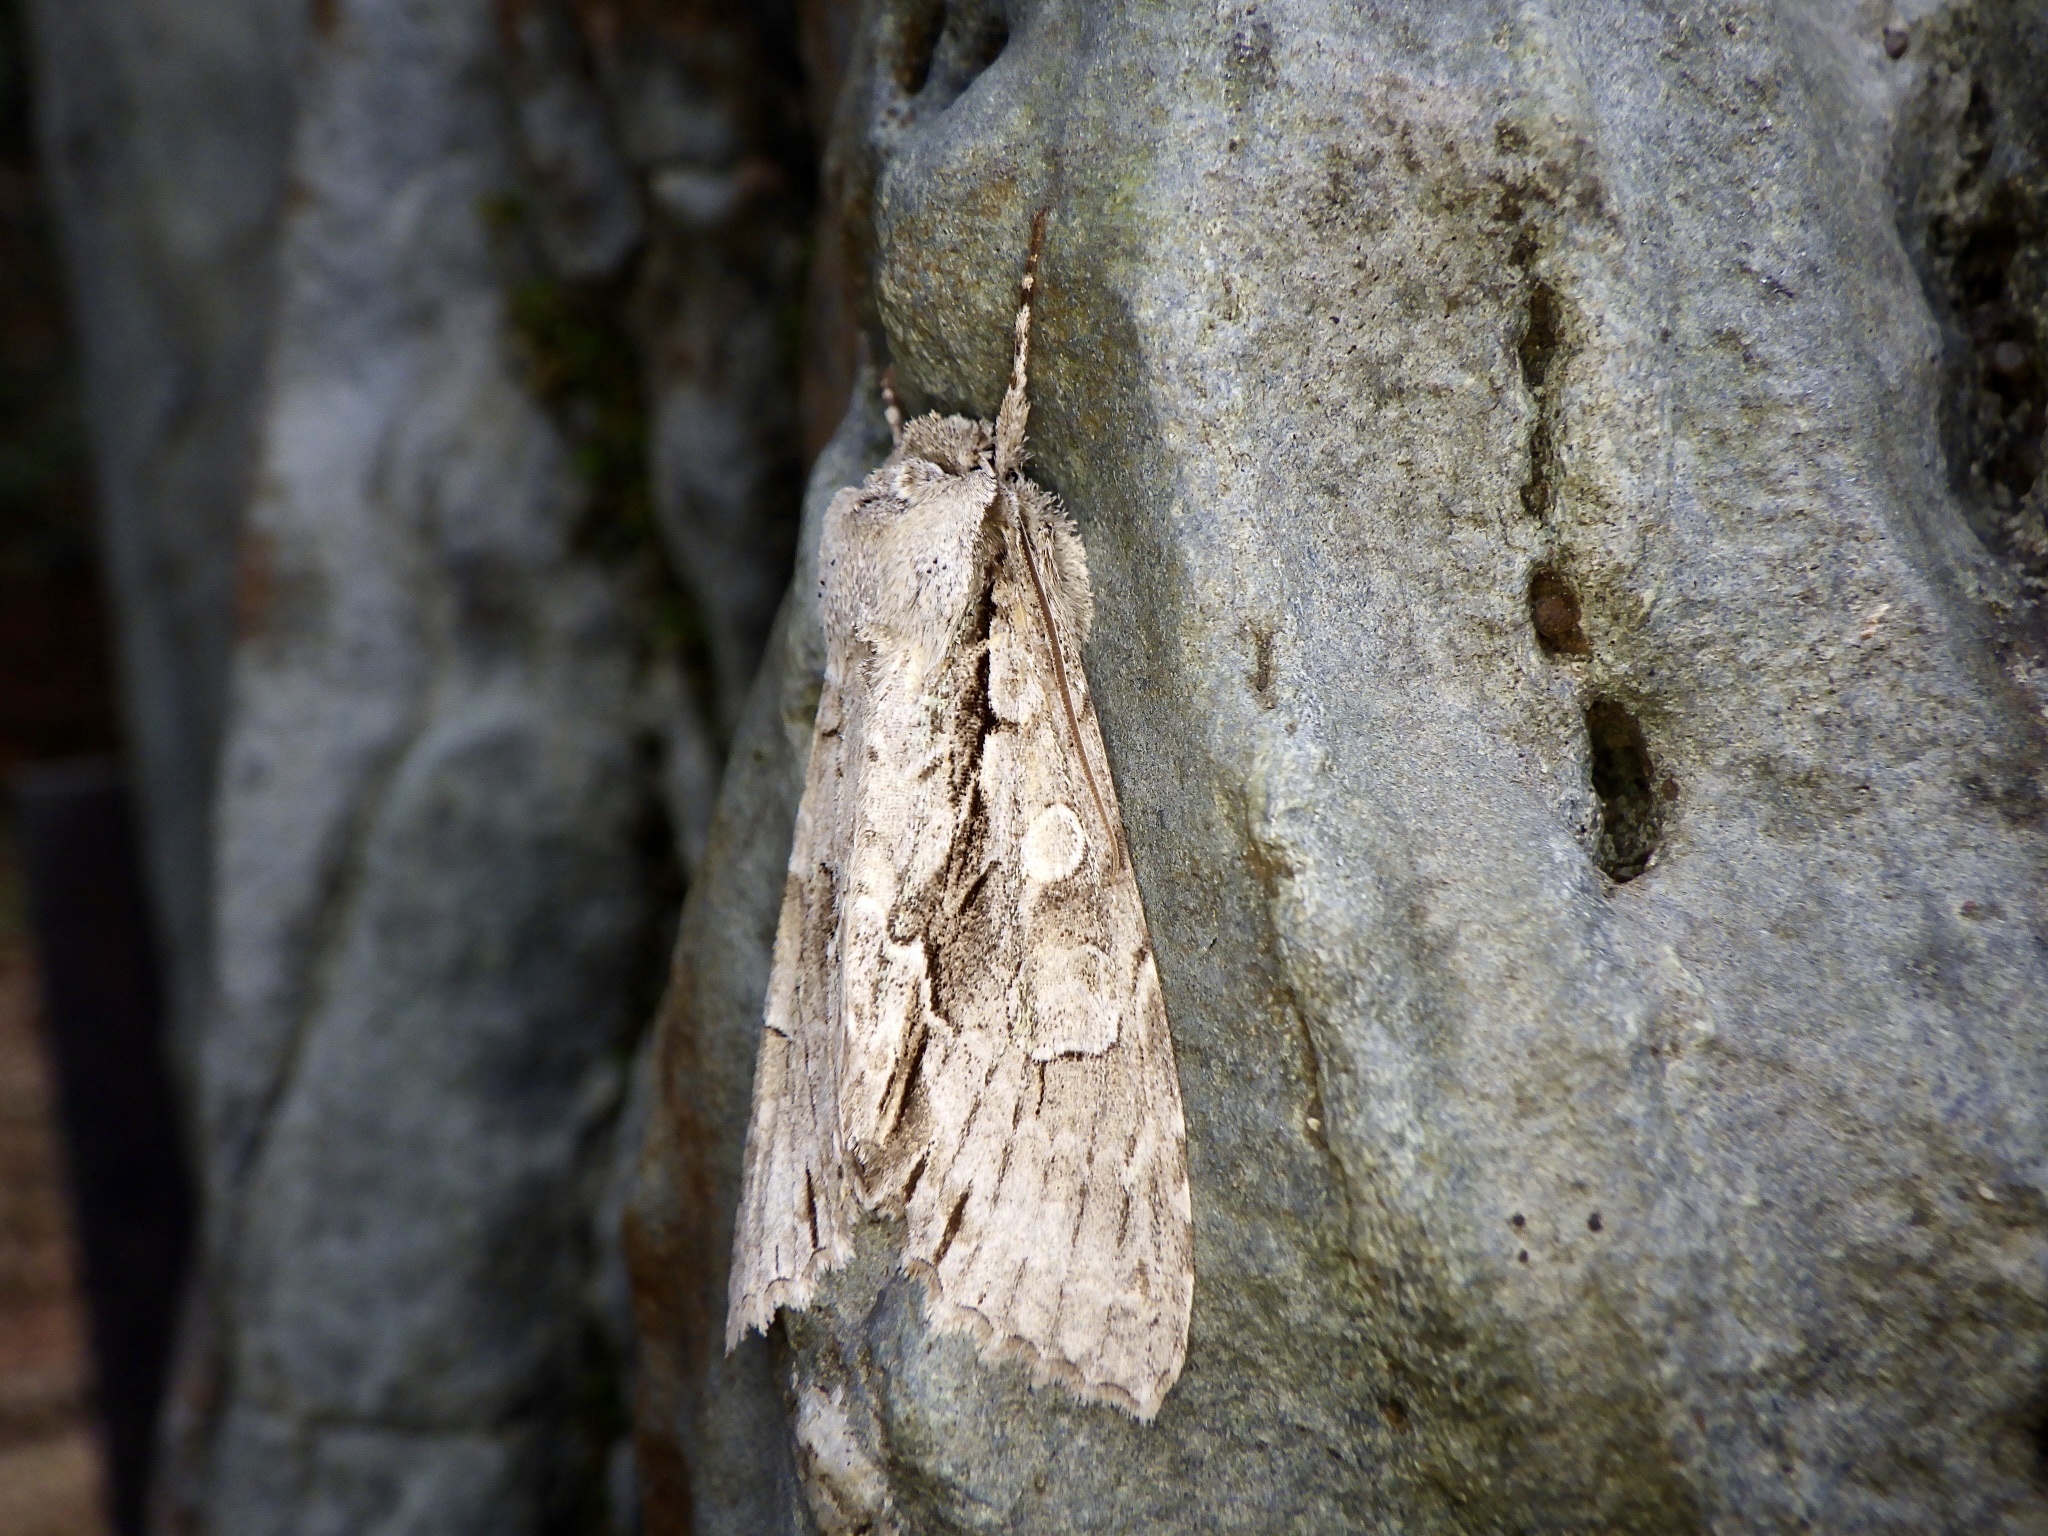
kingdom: Animalia
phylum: Arthropoda
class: Insecta
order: Lepidoptera
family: Noctuidae
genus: Meganephria
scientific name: Meganephria
